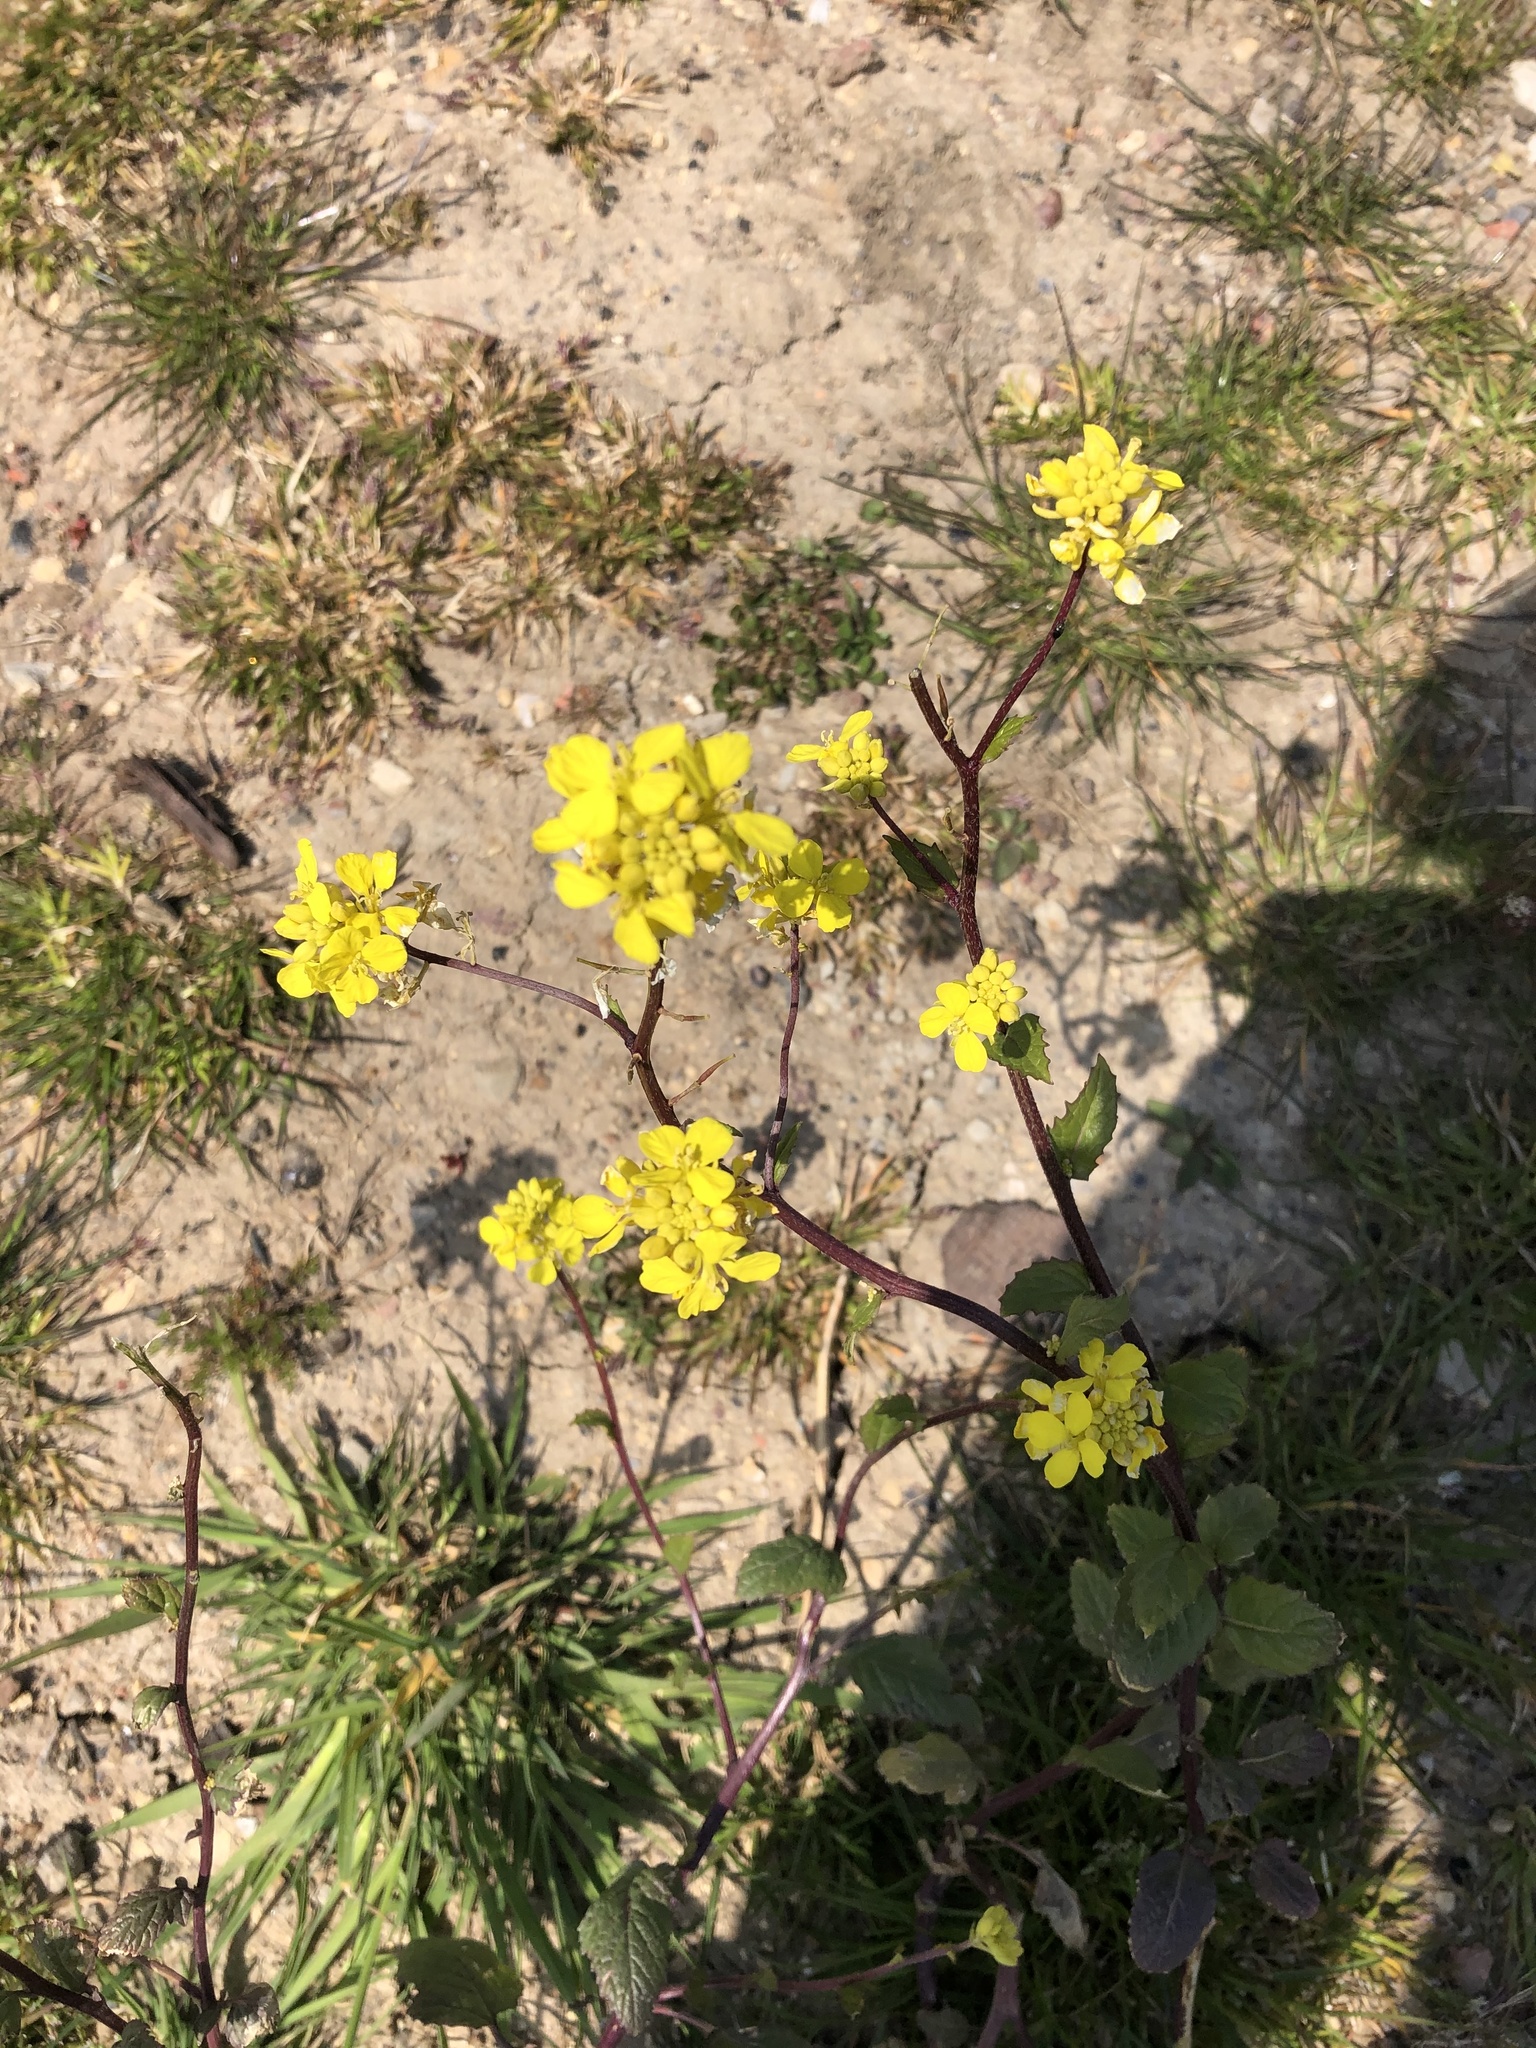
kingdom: Plantae
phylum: Tracheophyta
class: Magnoliopsida
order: Brassicales
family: Brassicaceae
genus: Sinapis
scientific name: Sinapis arvensis
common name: Charlock
